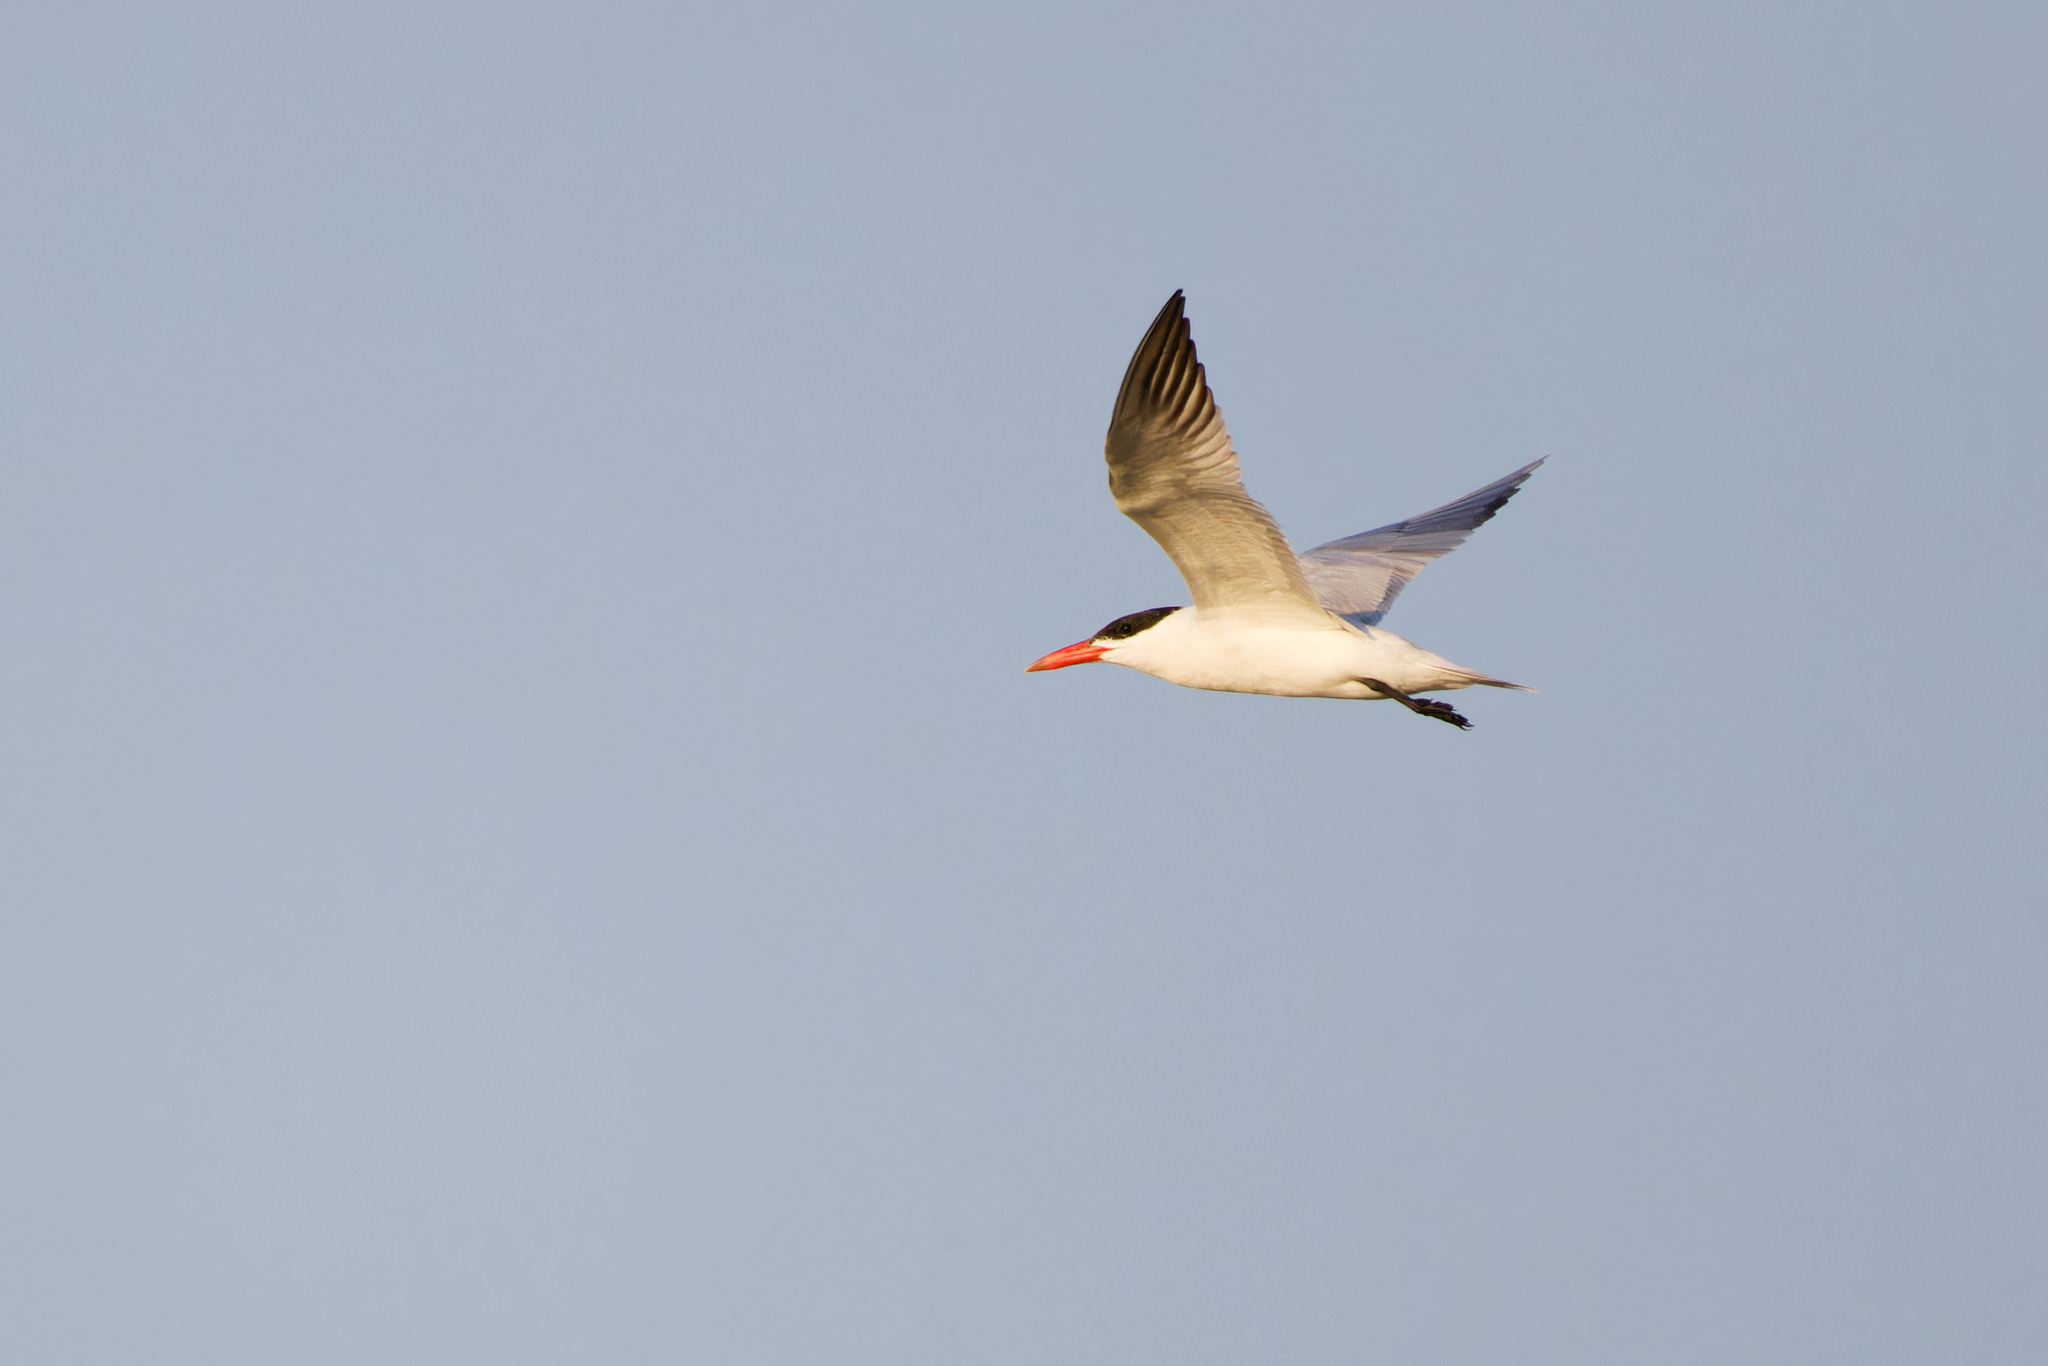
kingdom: Animalia
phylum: Chordata
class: Aves
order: Charadriiformes
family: Laridae
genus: Hydroprogne
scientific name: Hydroprogne caspia
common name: Caspian tern
